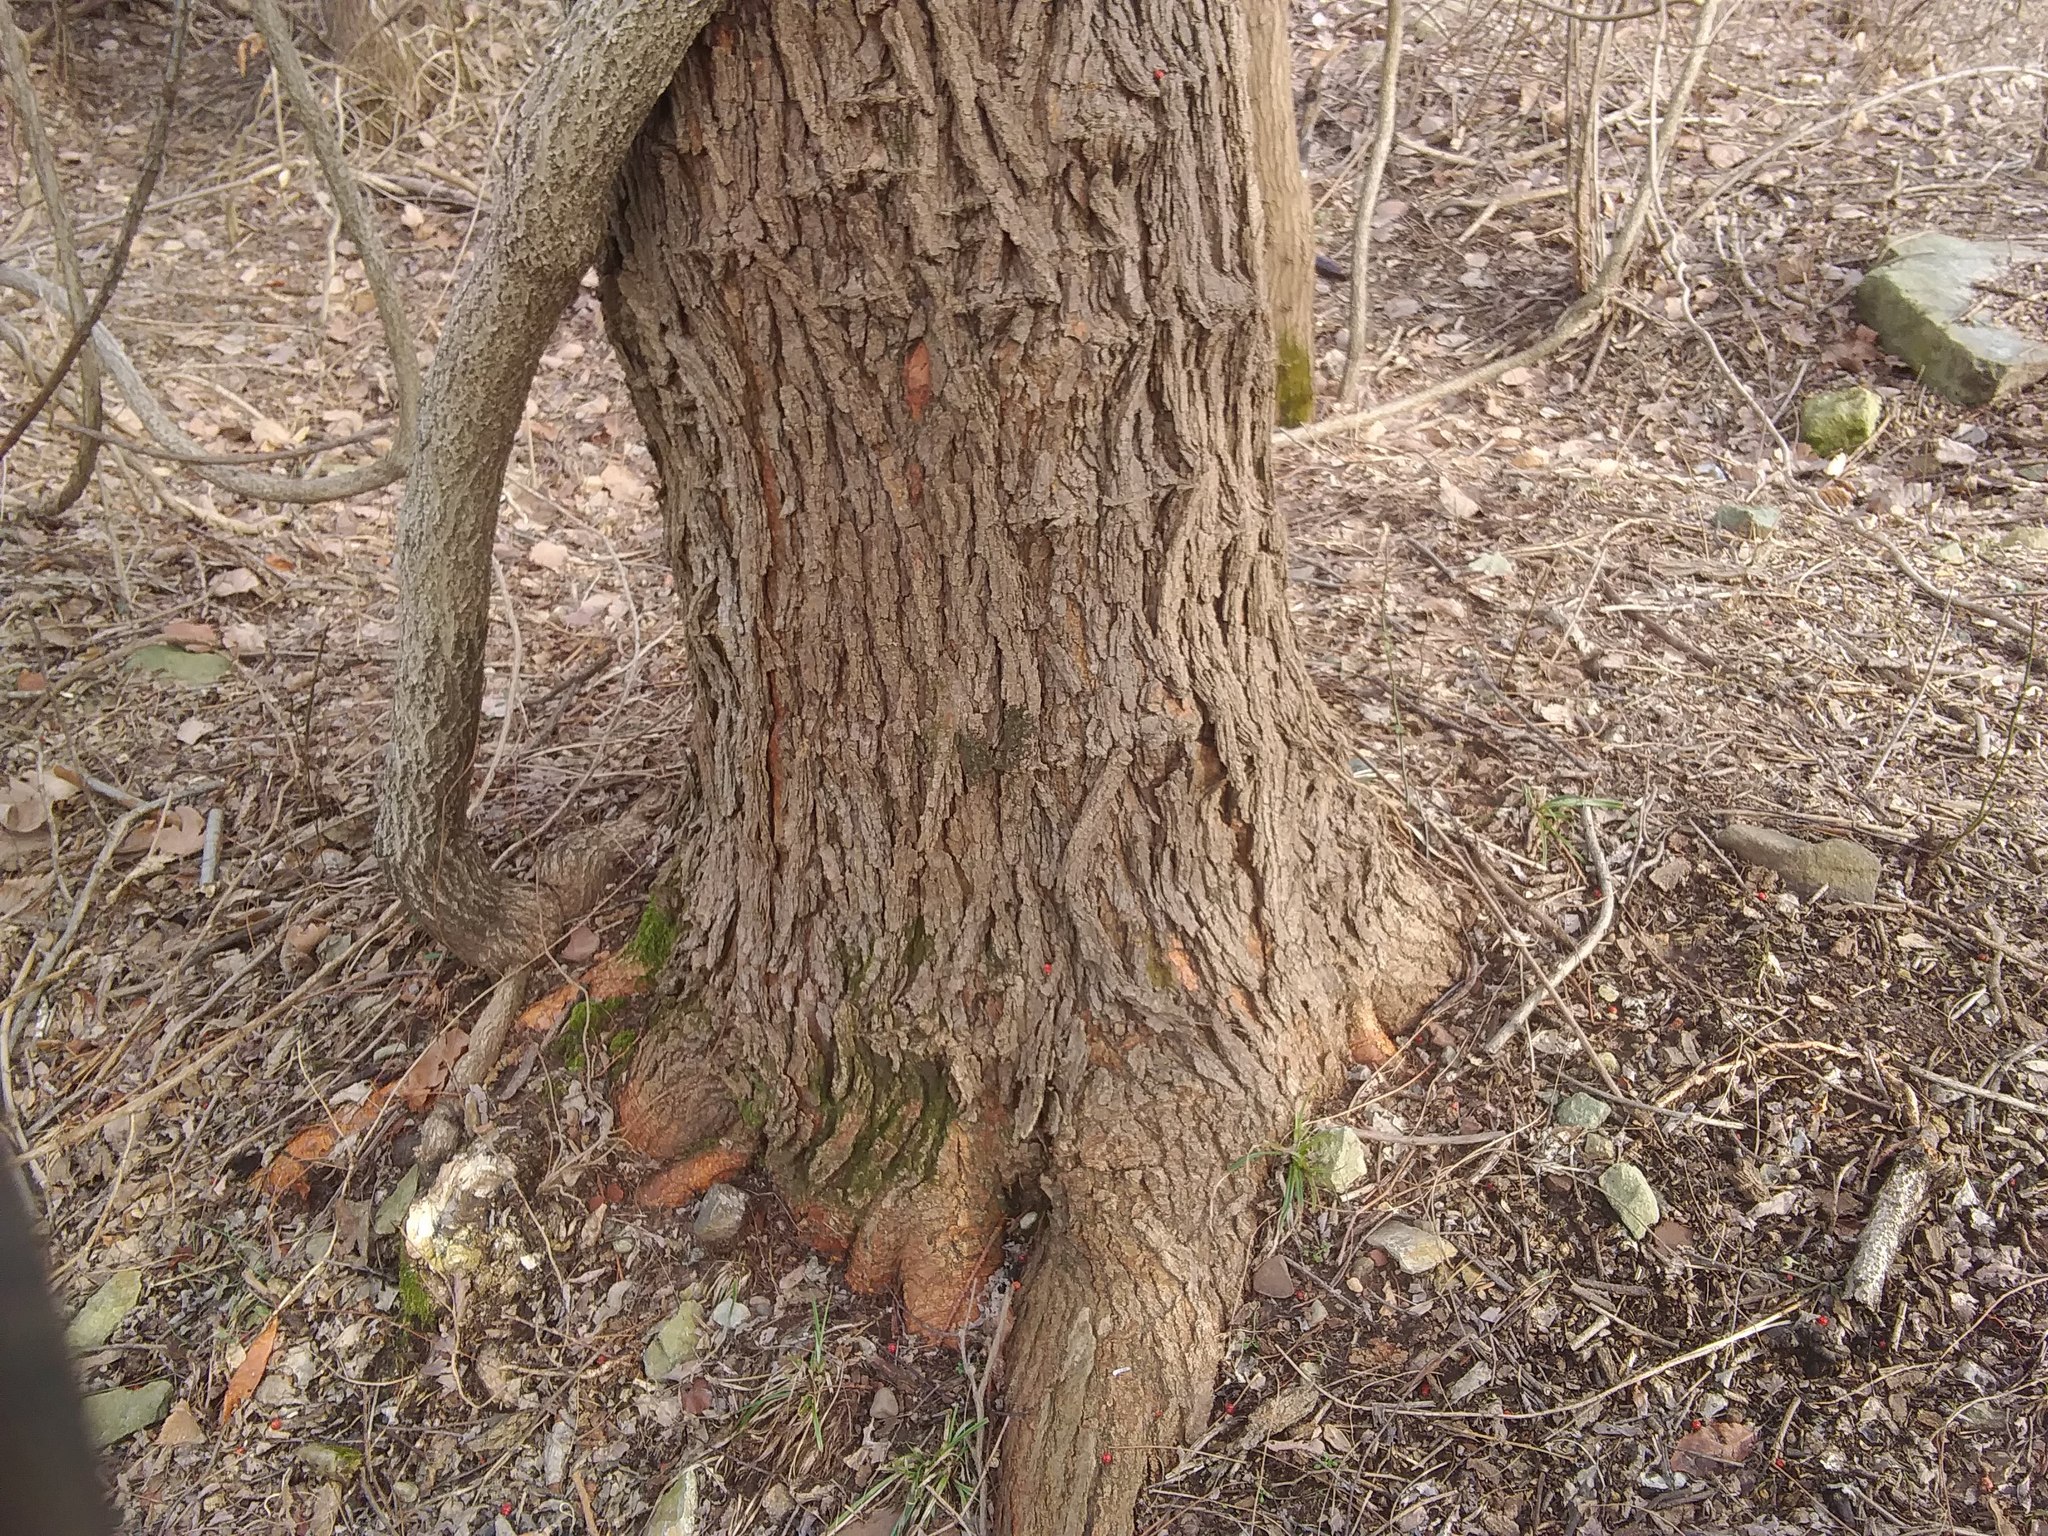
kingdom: Plantae
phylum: Tracheophyta
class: Magnoliopsida
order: Rosales
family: Moraceae
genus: Morus
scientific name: Morus alba
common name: White mulberry
